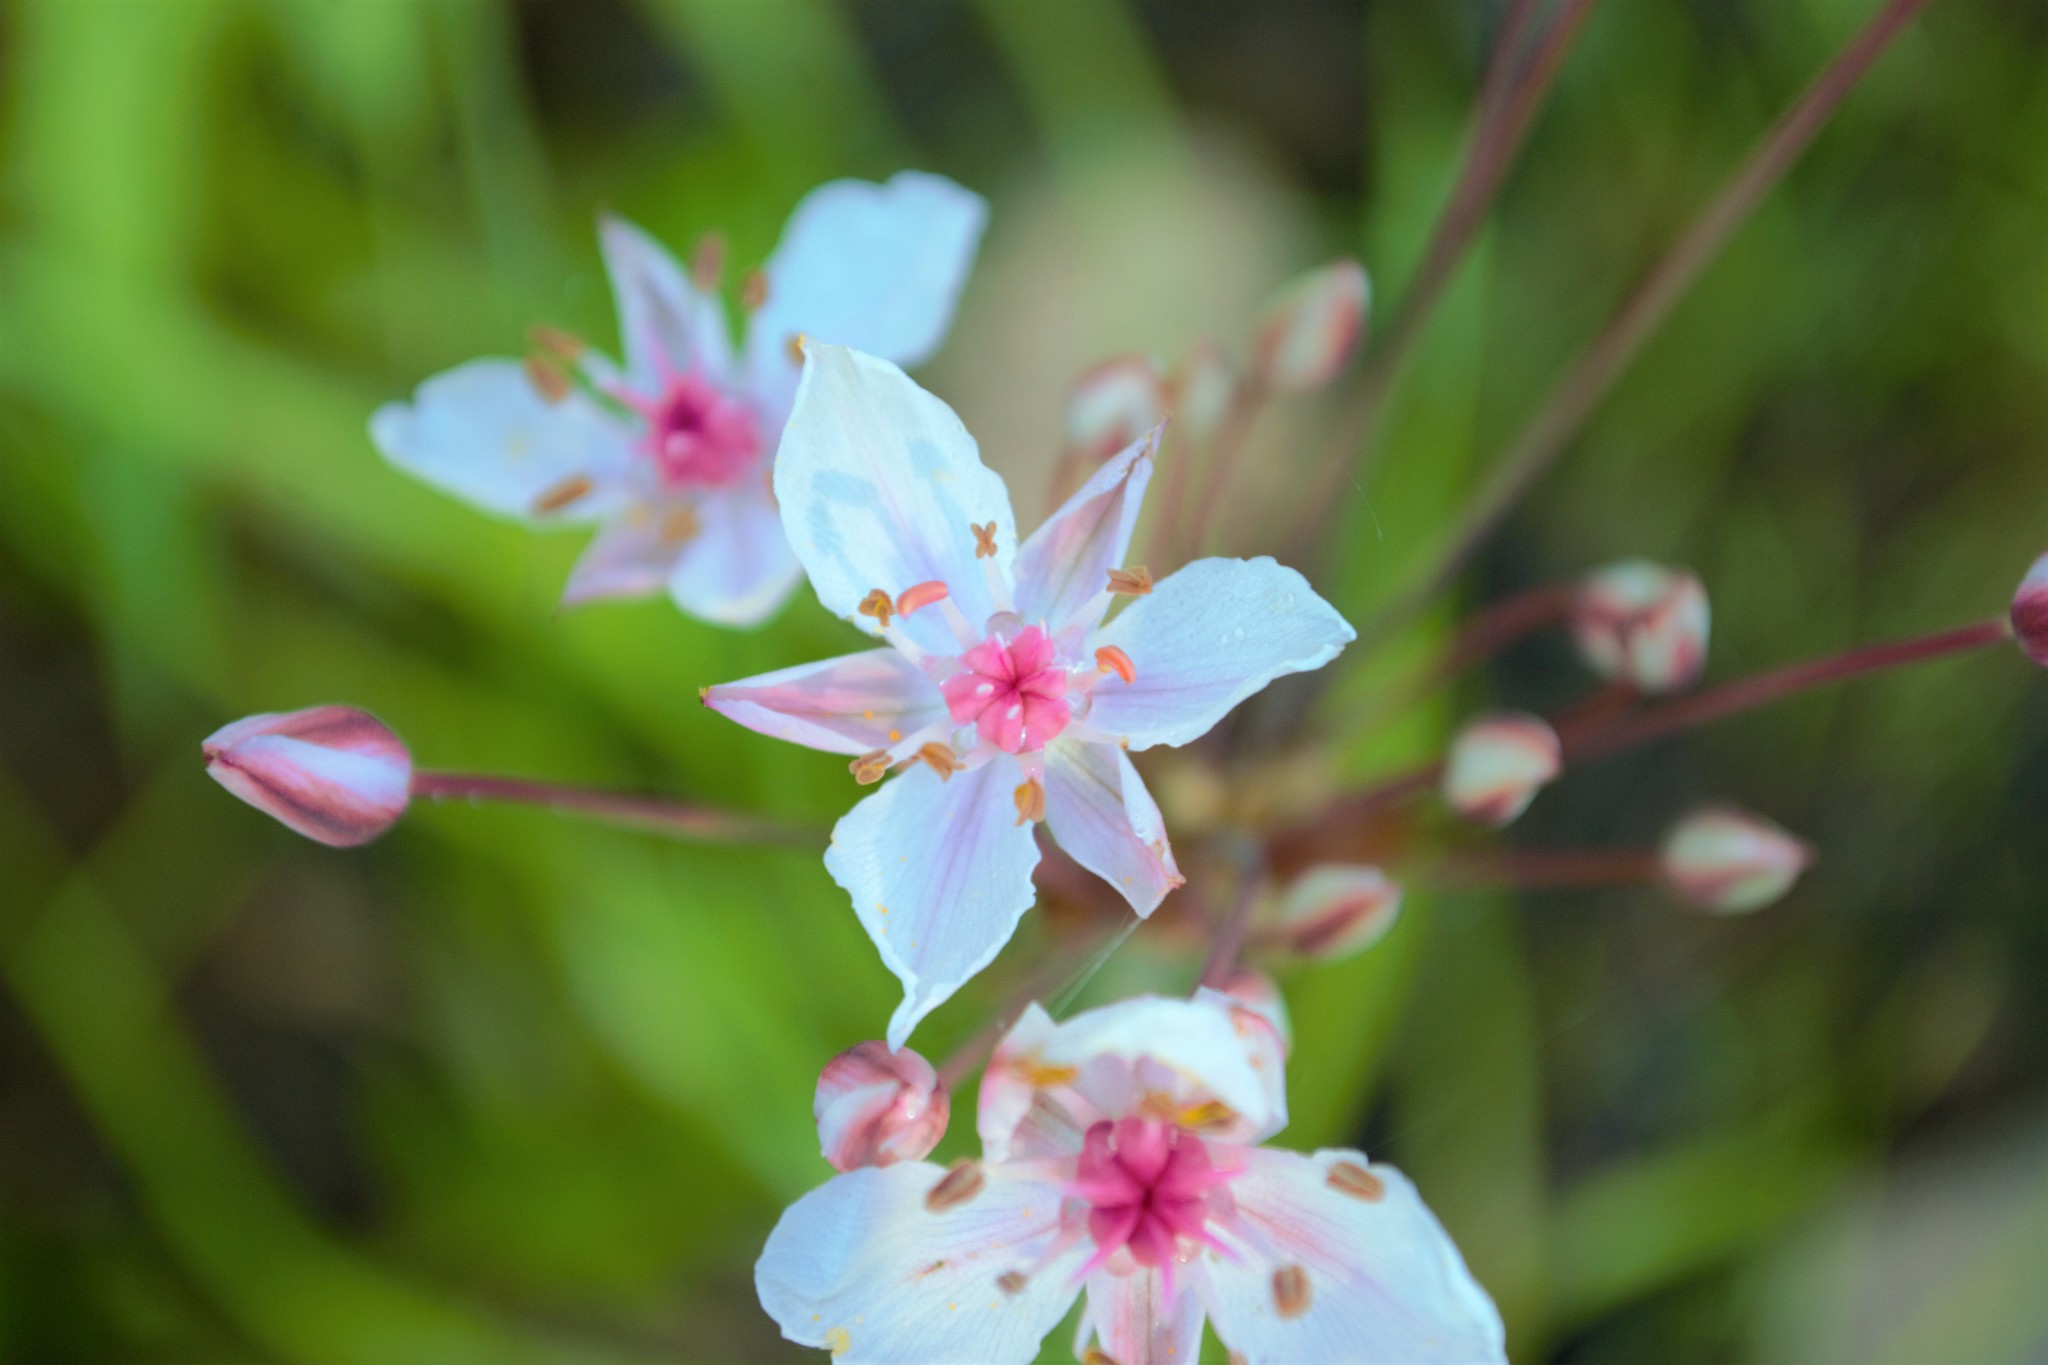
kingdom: Plantae
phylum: Tracheophyta
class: Liliopsida
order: Alismatales
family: Butomaceae
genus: Butomus
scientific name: Butomus umbellatus
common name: Flowering-rush
